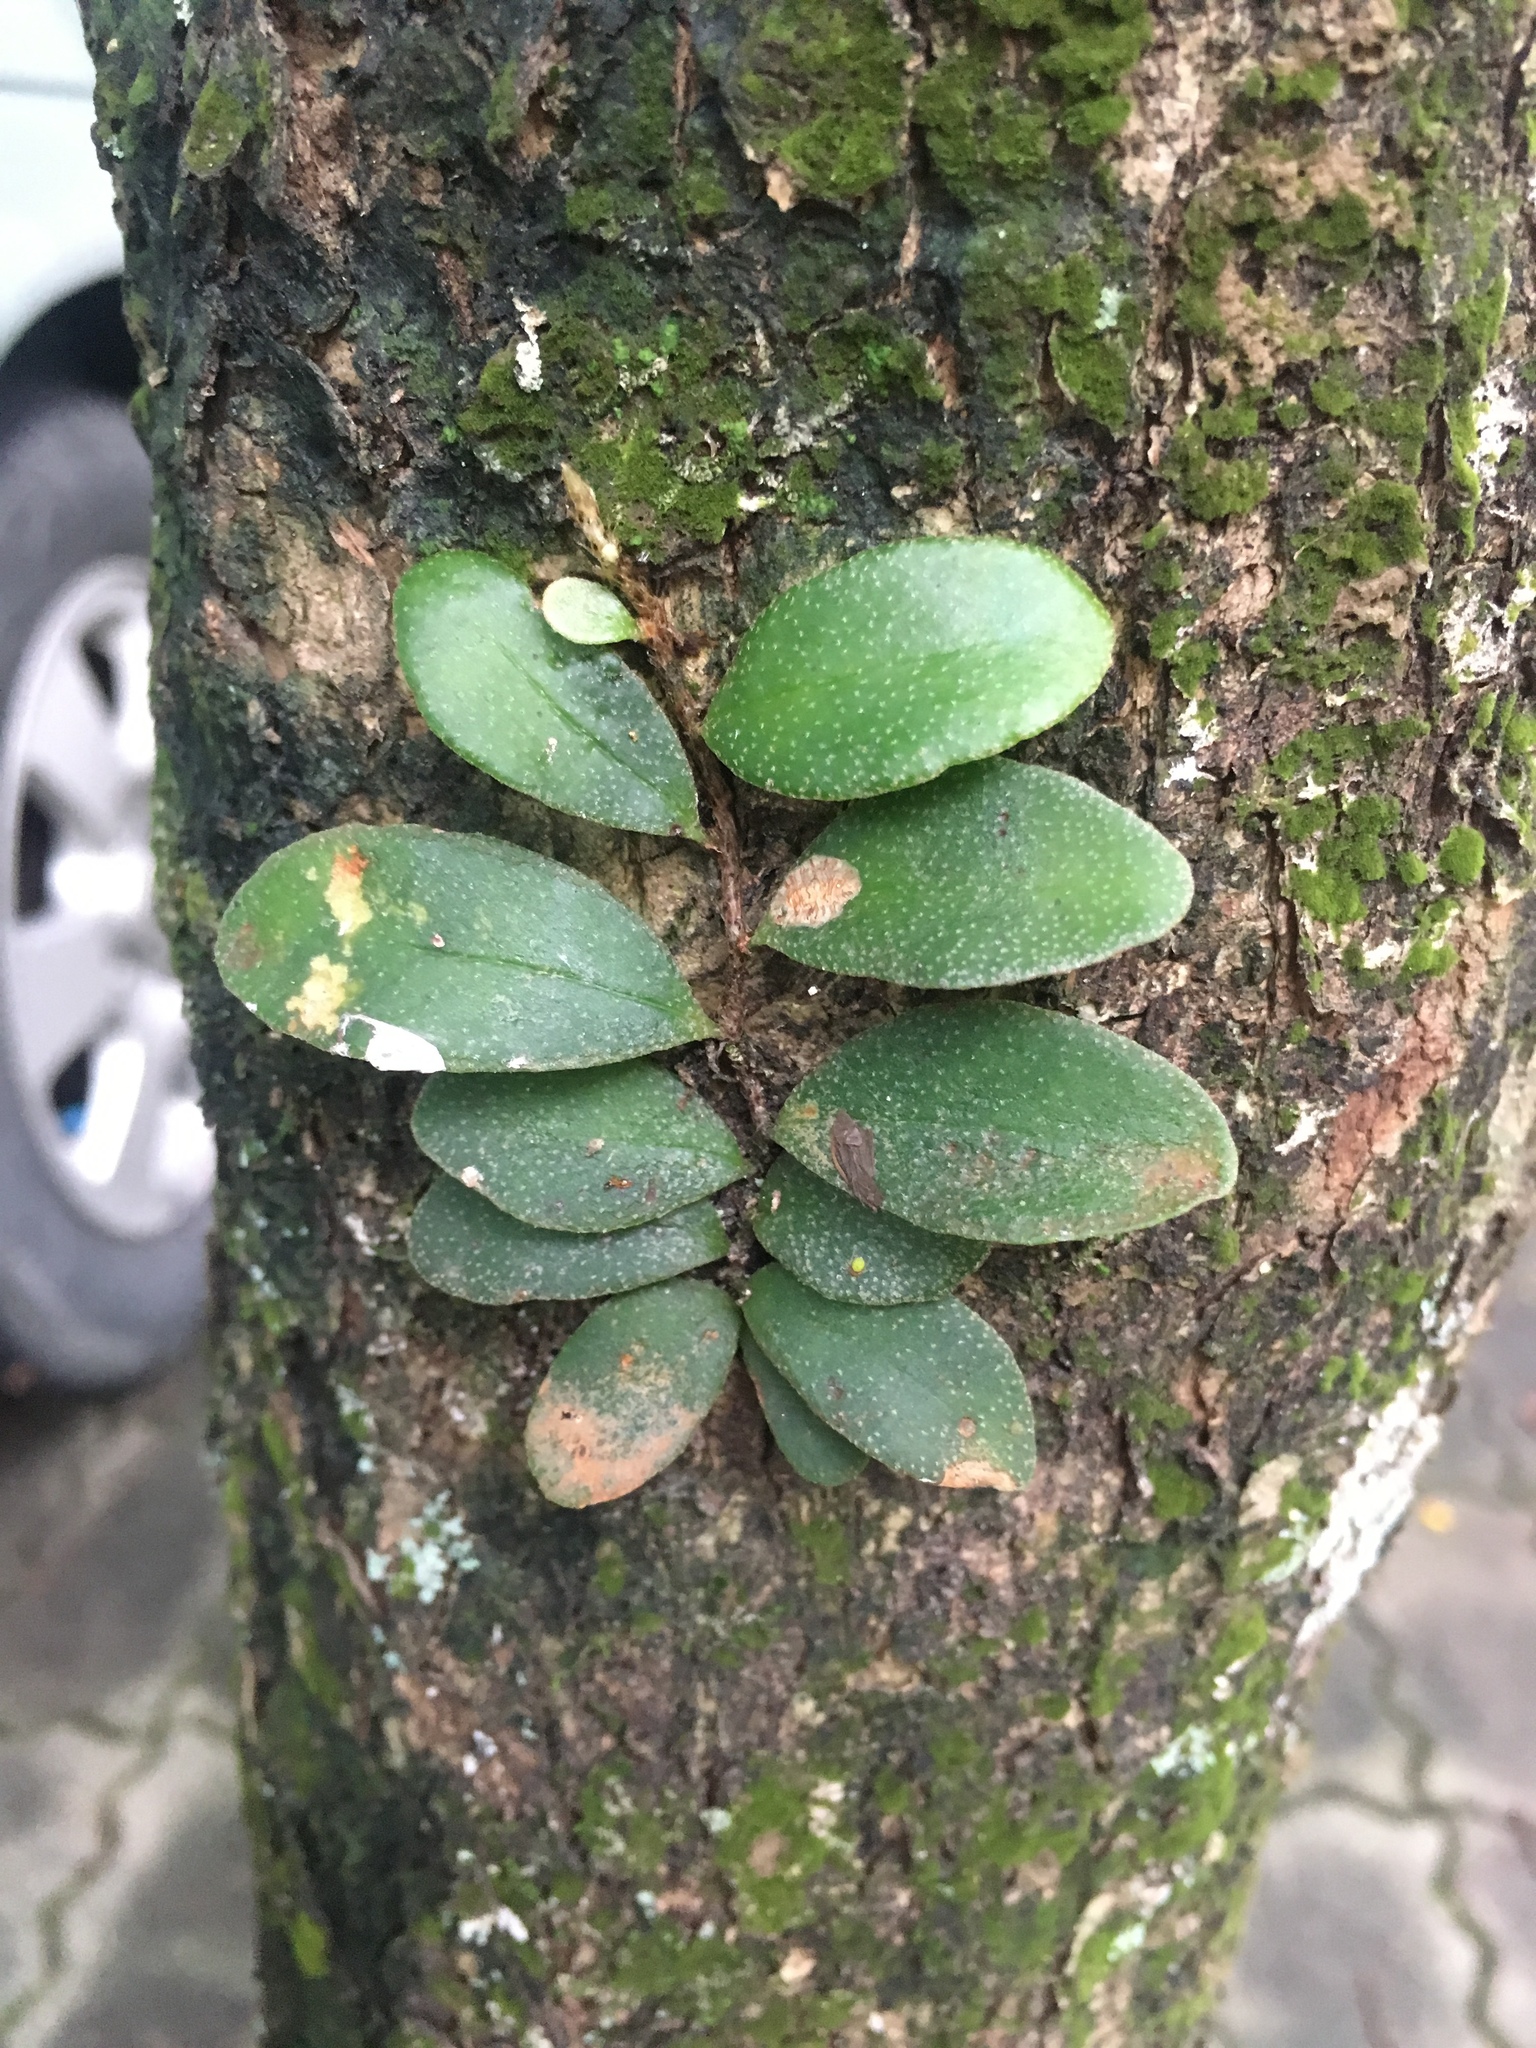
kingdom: Plantae
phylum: Tracheophyta
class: Polypodiopsida
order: Polypodiales
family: Polypodiaceae
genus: Pyrrosia
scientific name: Pyrrosia lanceolata
